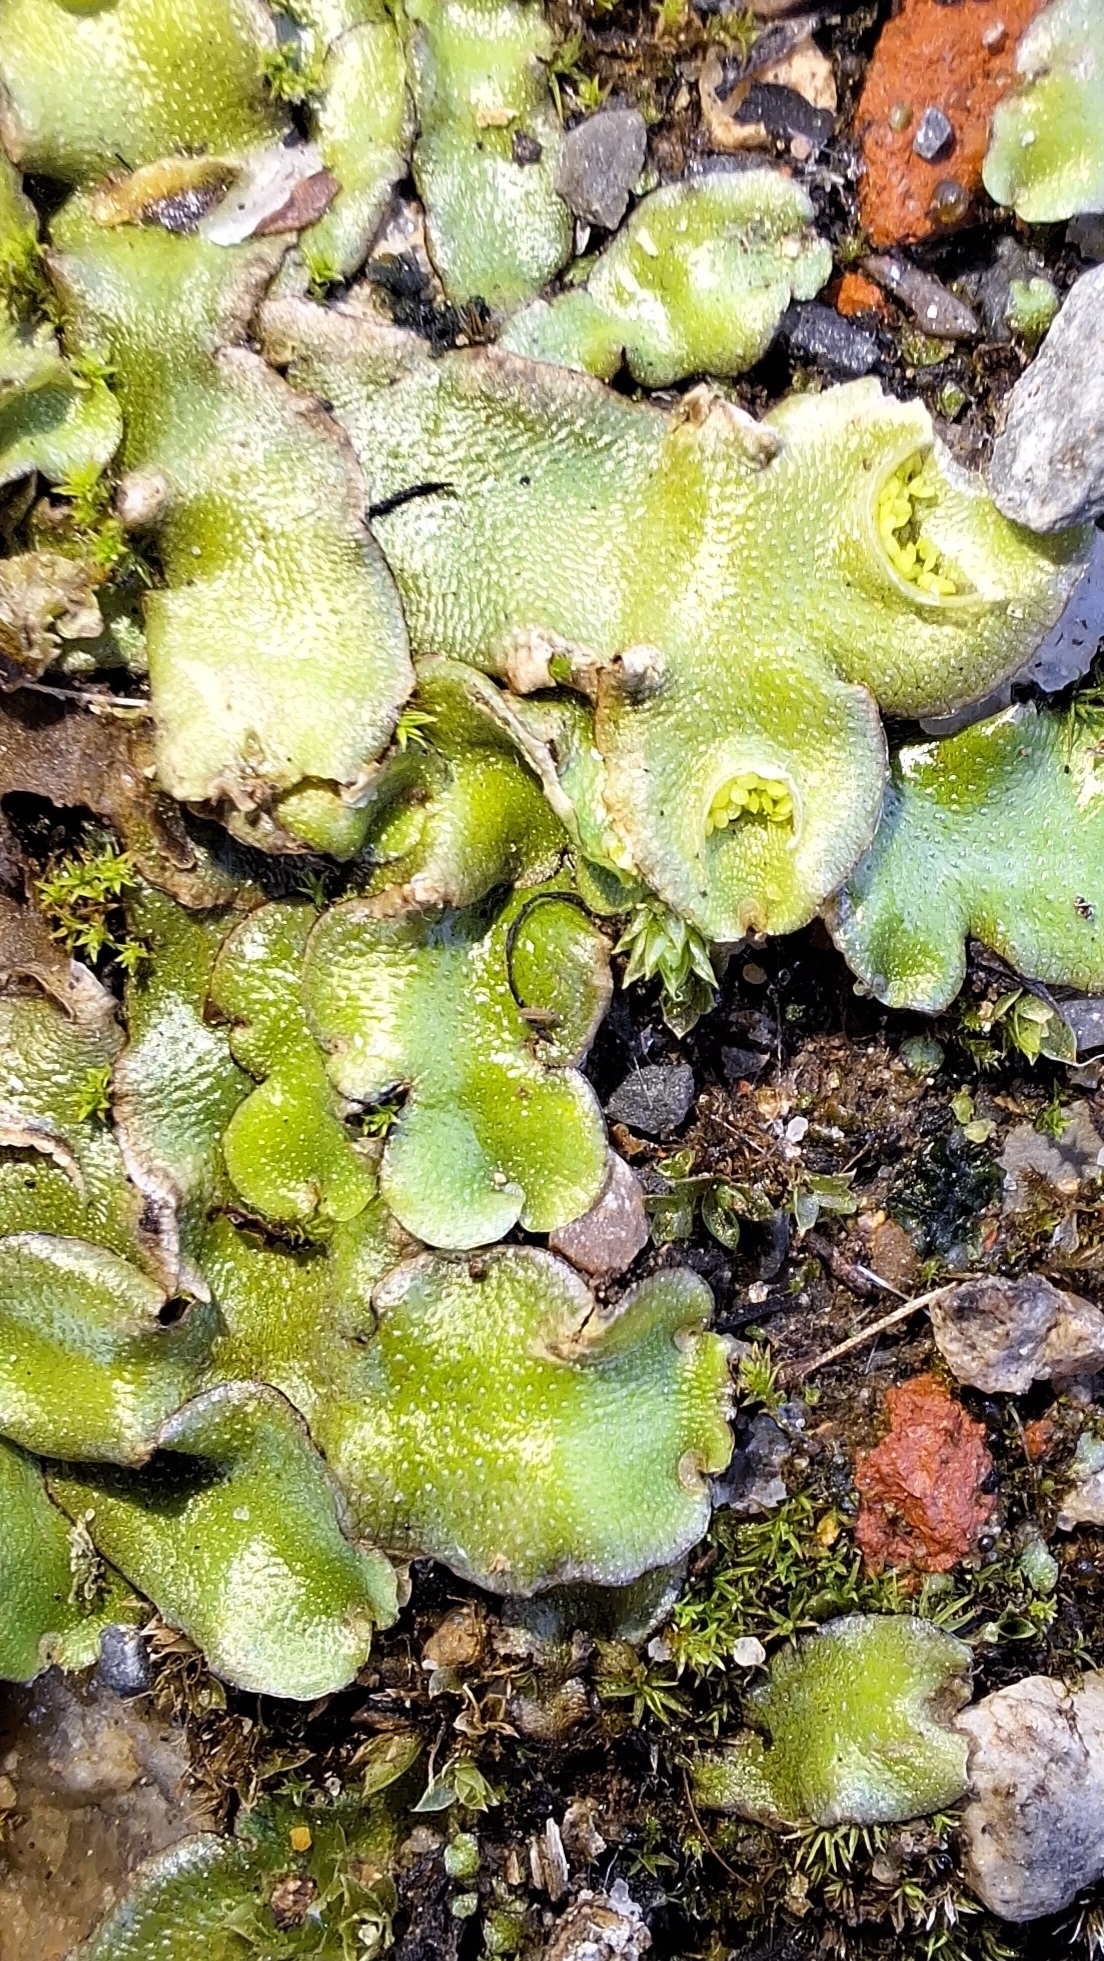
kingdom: Plantae
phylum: Marchantiophyta
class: Marchantiopsida
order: Lunulariales
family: Lunulariaceae
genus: Lunularia
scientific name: Lunularia cruciata
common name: Crescent-cup liverwort
